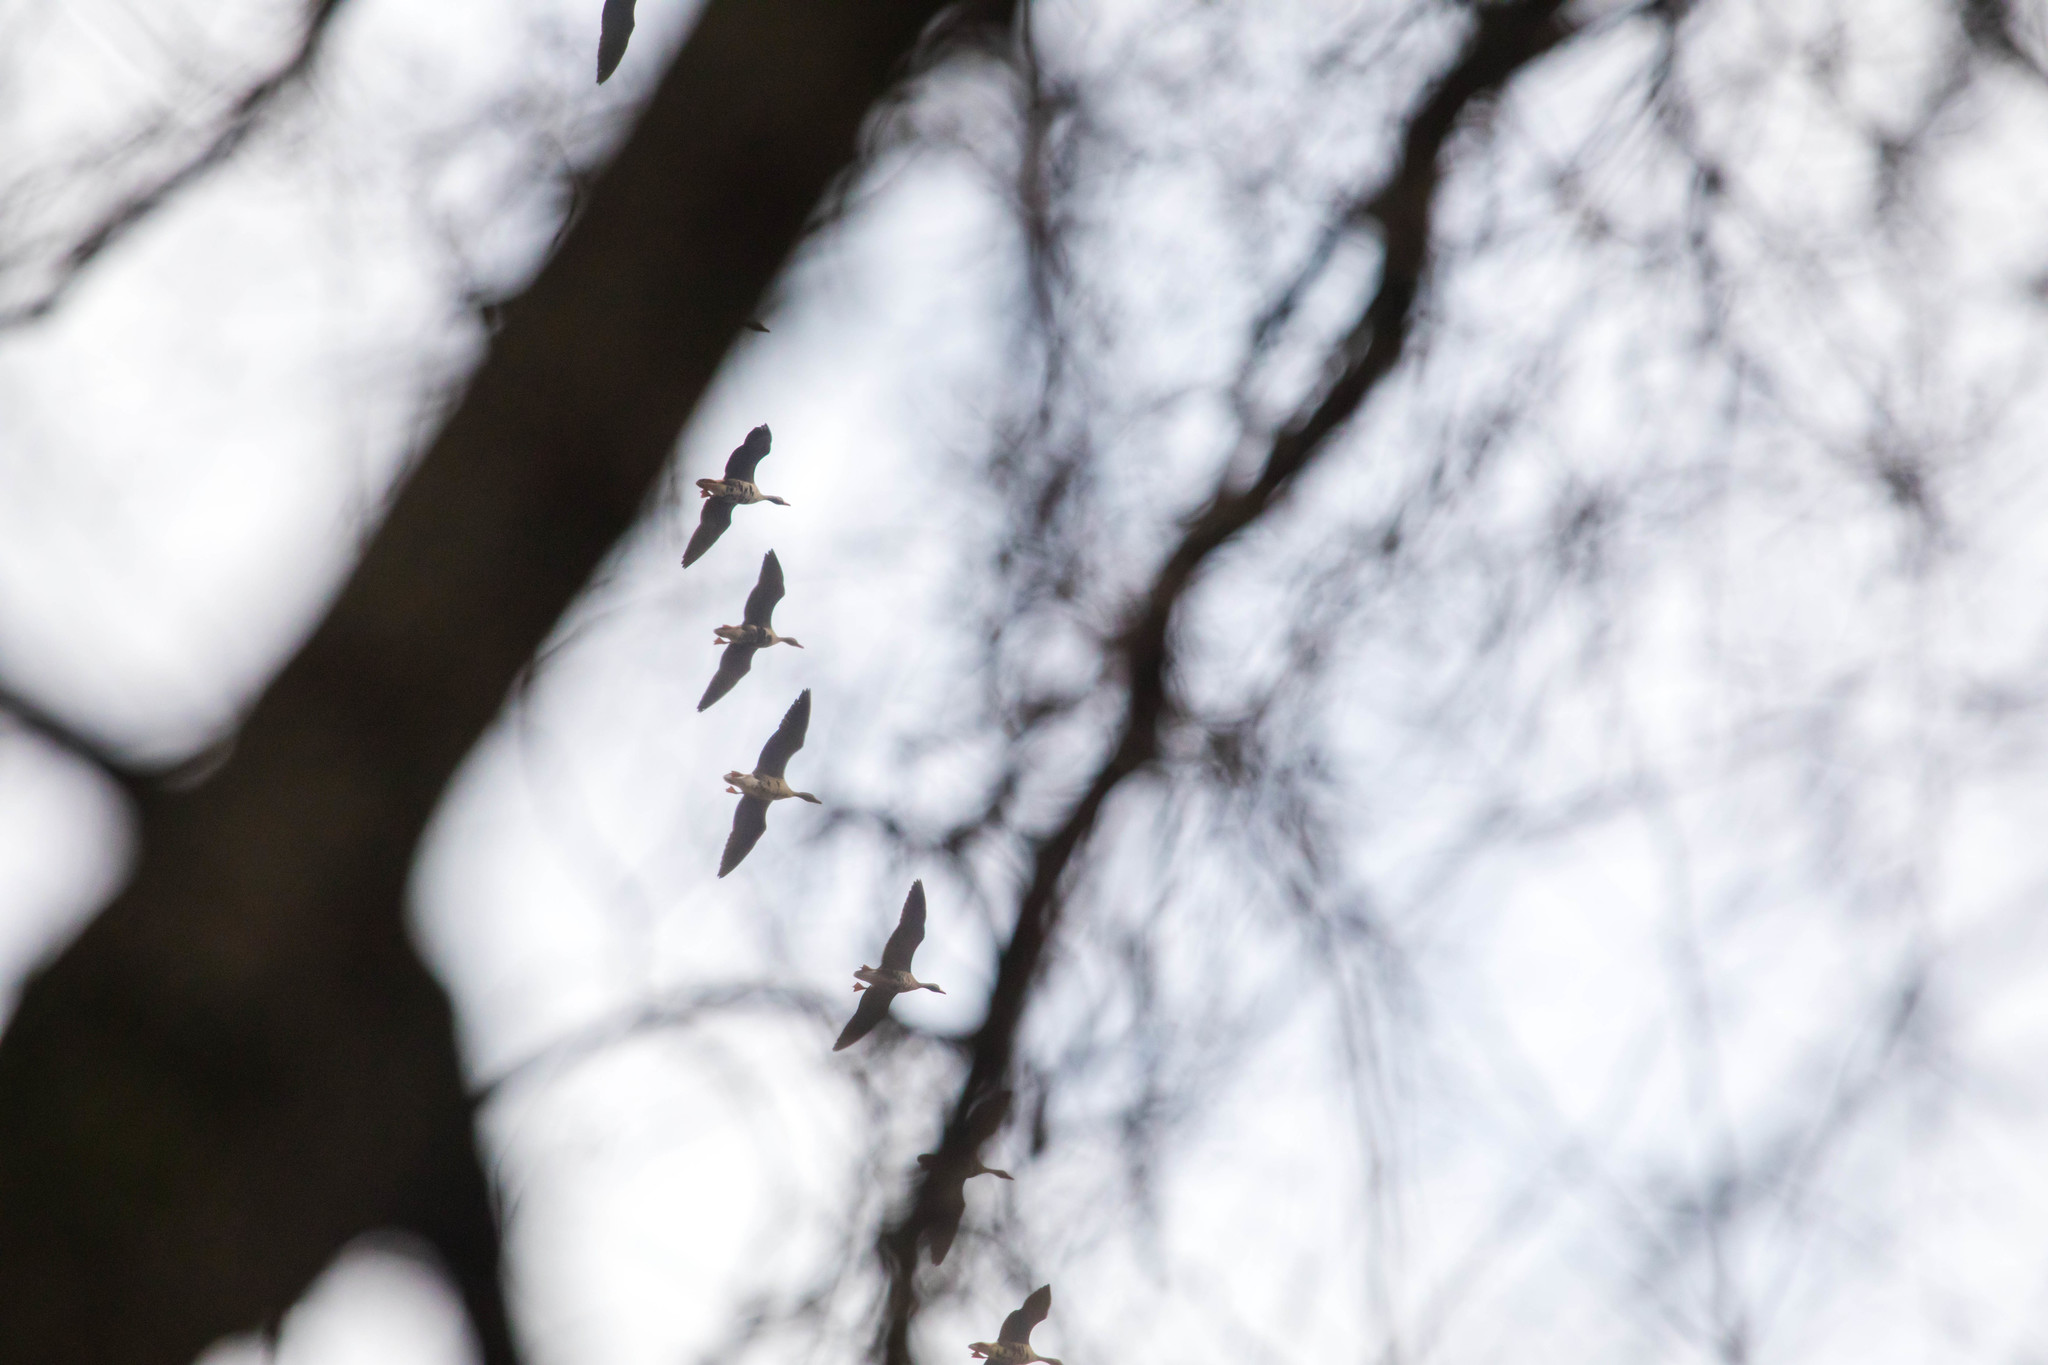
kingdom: Animalia
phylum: Chordata
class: Aves
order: Anseriformes
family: Anatidae
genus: Anser
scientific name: Anser albifrons
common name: Greater white-fronted goose
